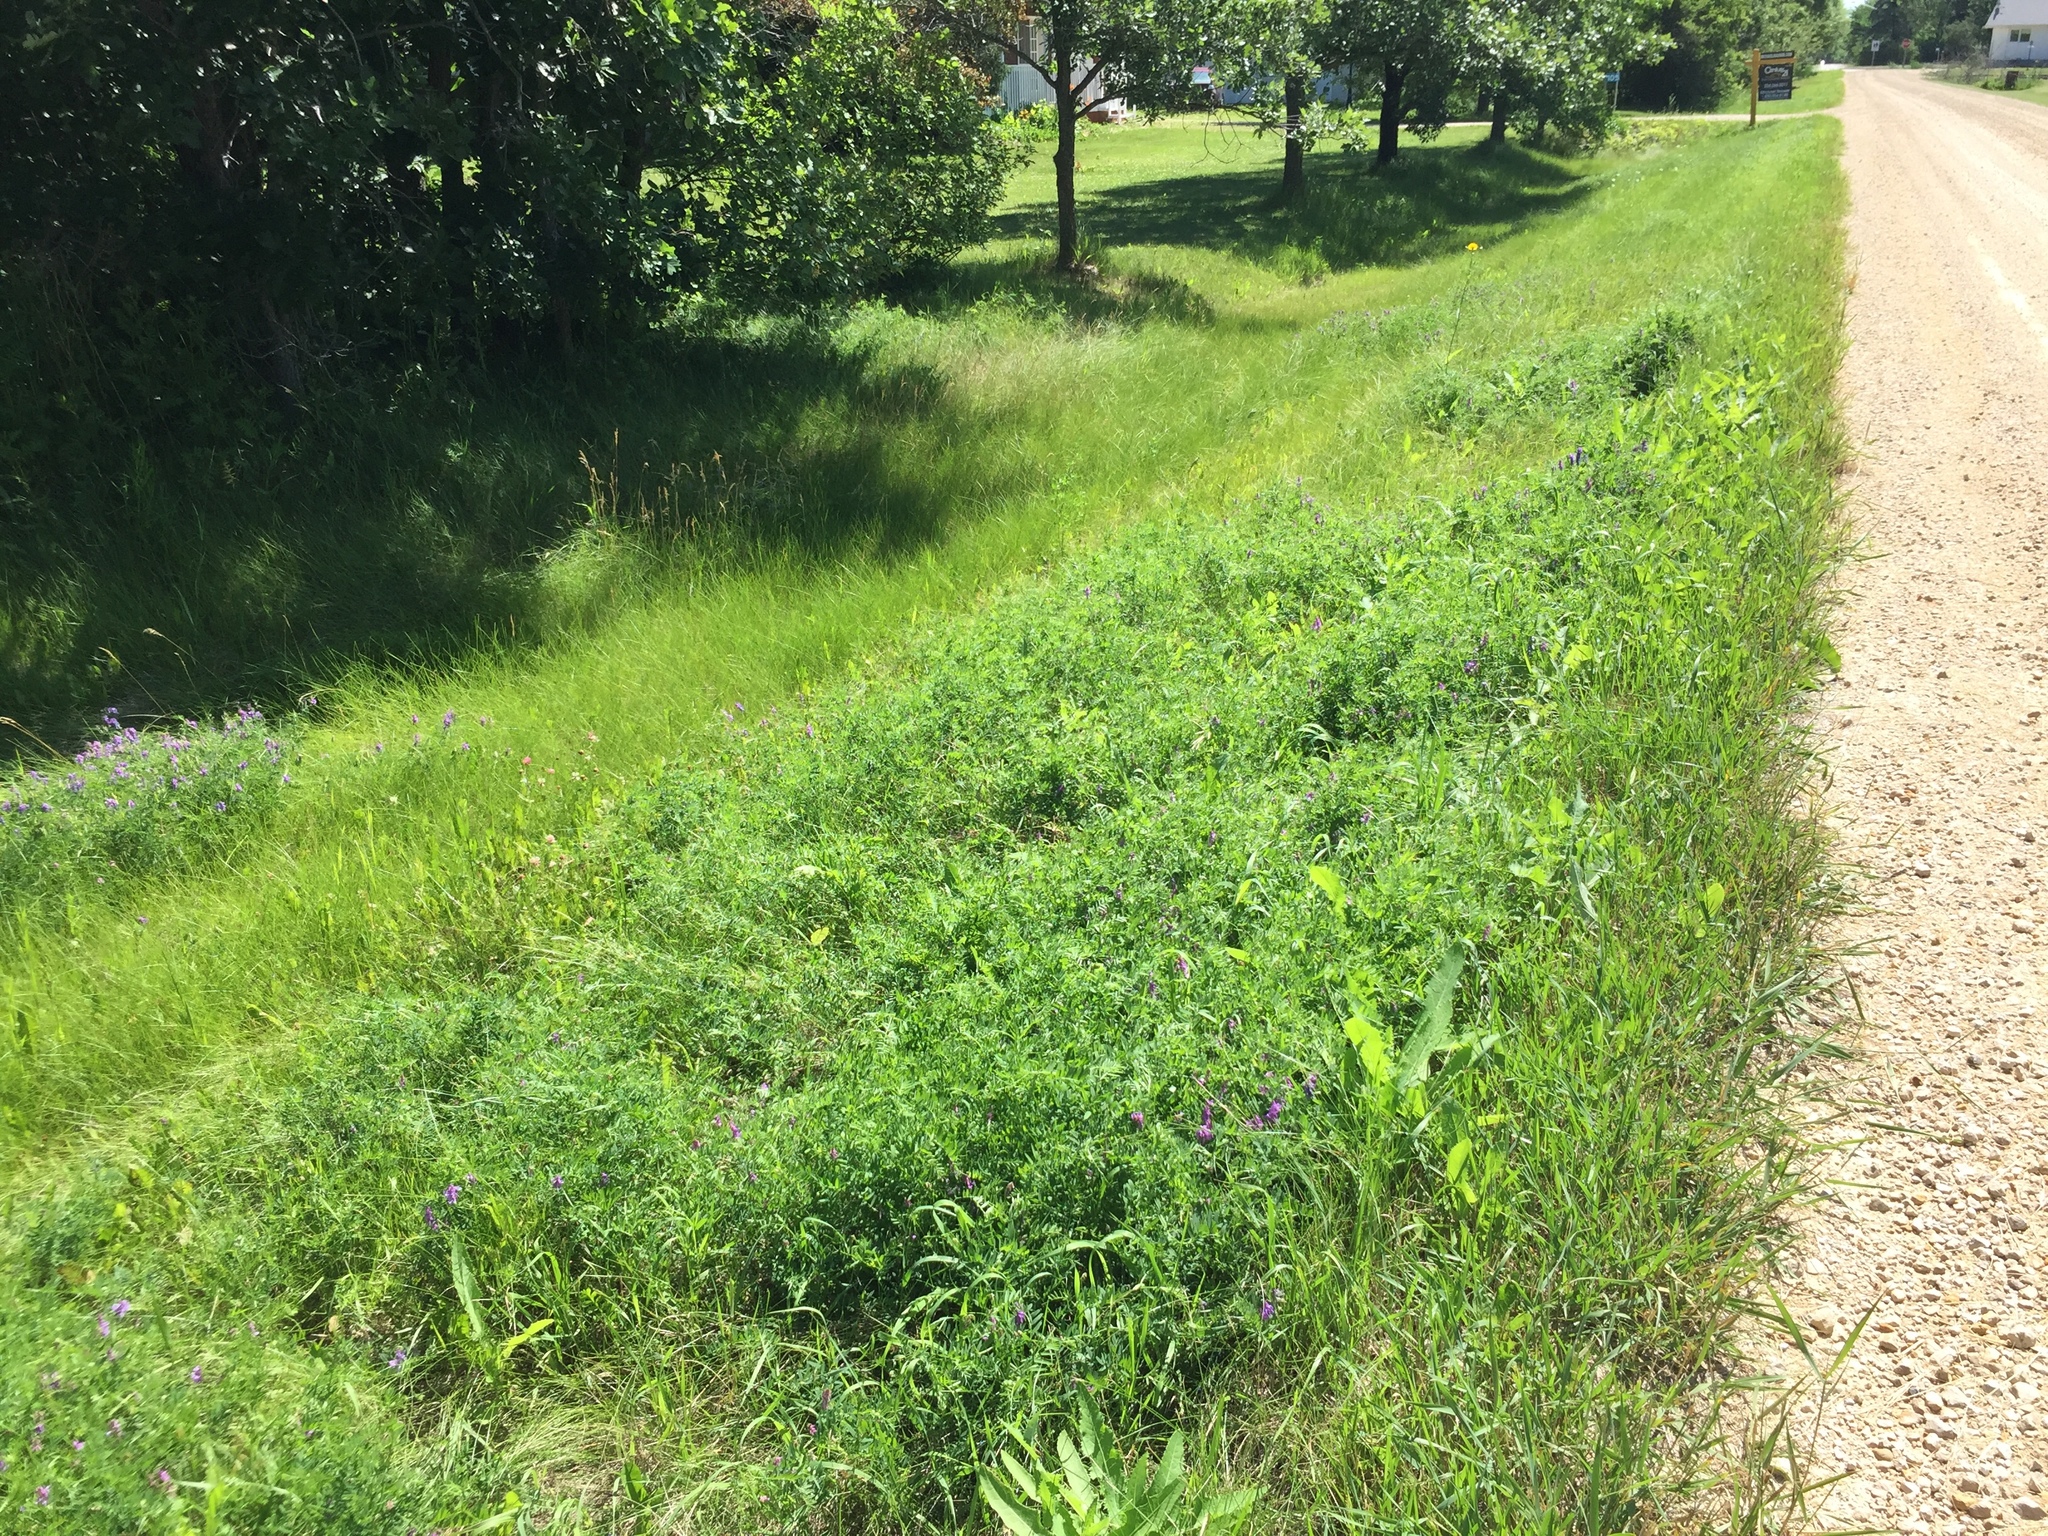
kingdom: Plantae
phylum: Tracheophyta
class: Magnoliopsida
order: Fabales
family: Fabaceae
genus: Vicia
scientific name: Vicia cracca
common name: Bird vetch
